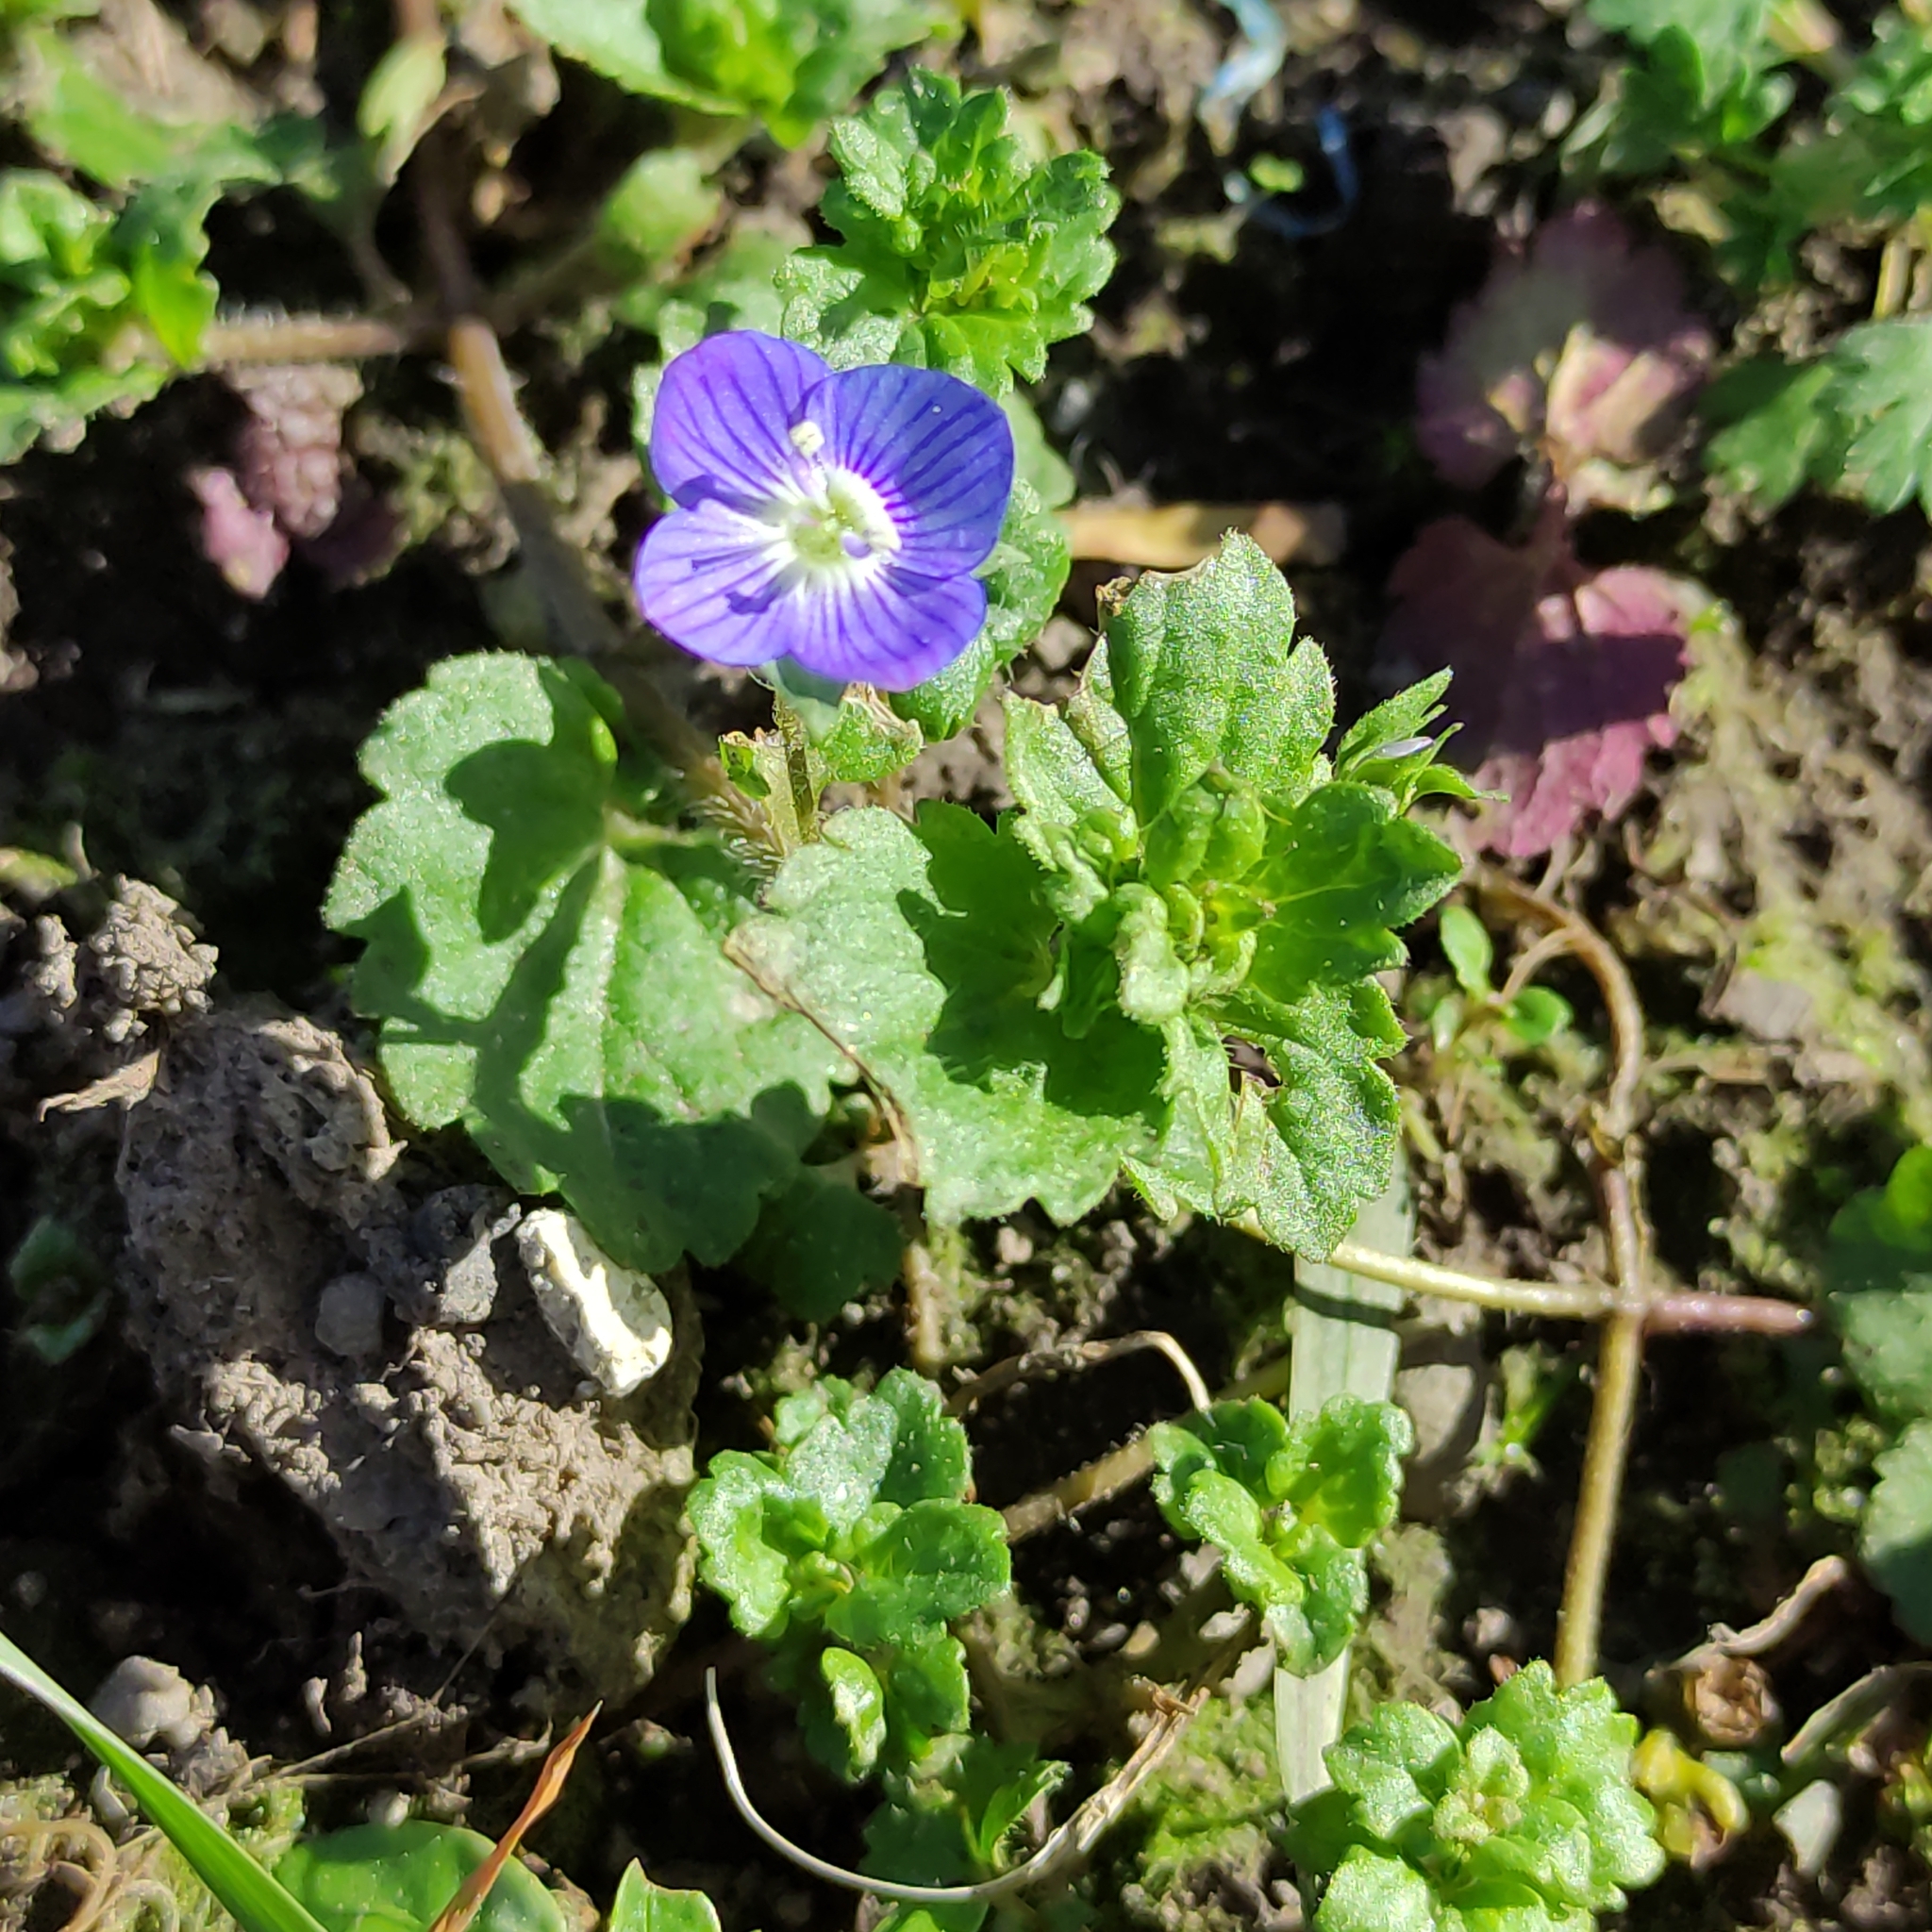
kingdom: Plantae
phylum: Tracheophyta
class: Magnoliopsida
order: Lamiales
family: Plantaginaceae
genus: Veronica
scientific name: Veronica persica
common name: Common field-speedwell
